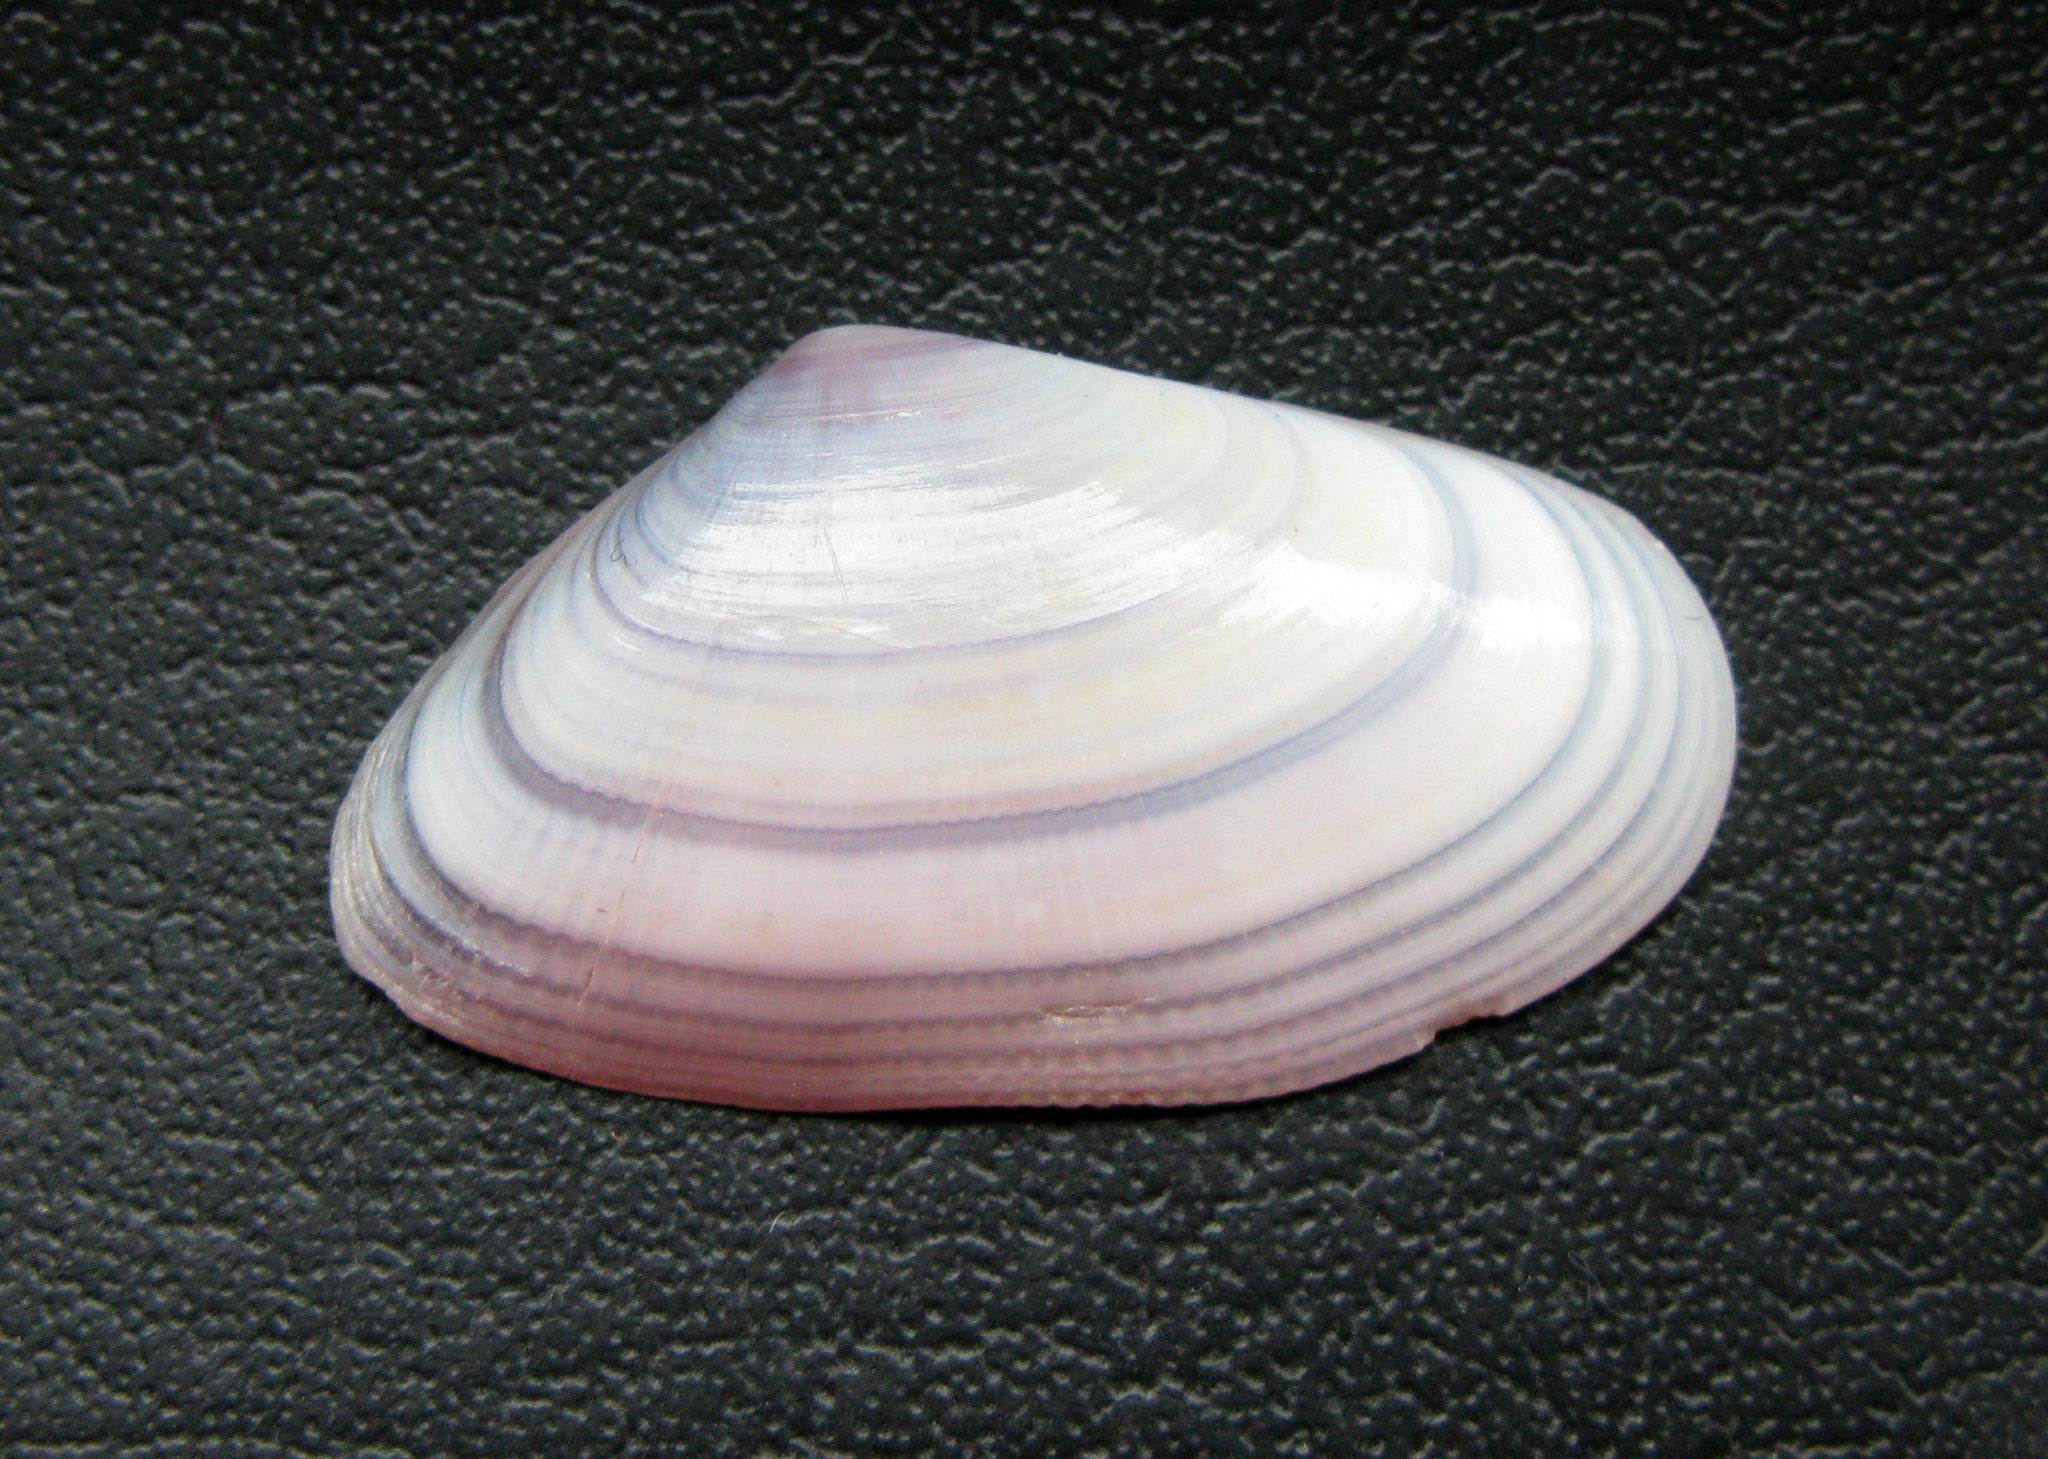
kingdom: Animalia
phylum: Mollusca
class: Bivalvia
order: Cardiida
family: Donacidae
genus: Donax
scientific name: Donax trunculus
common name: Truncate donax
